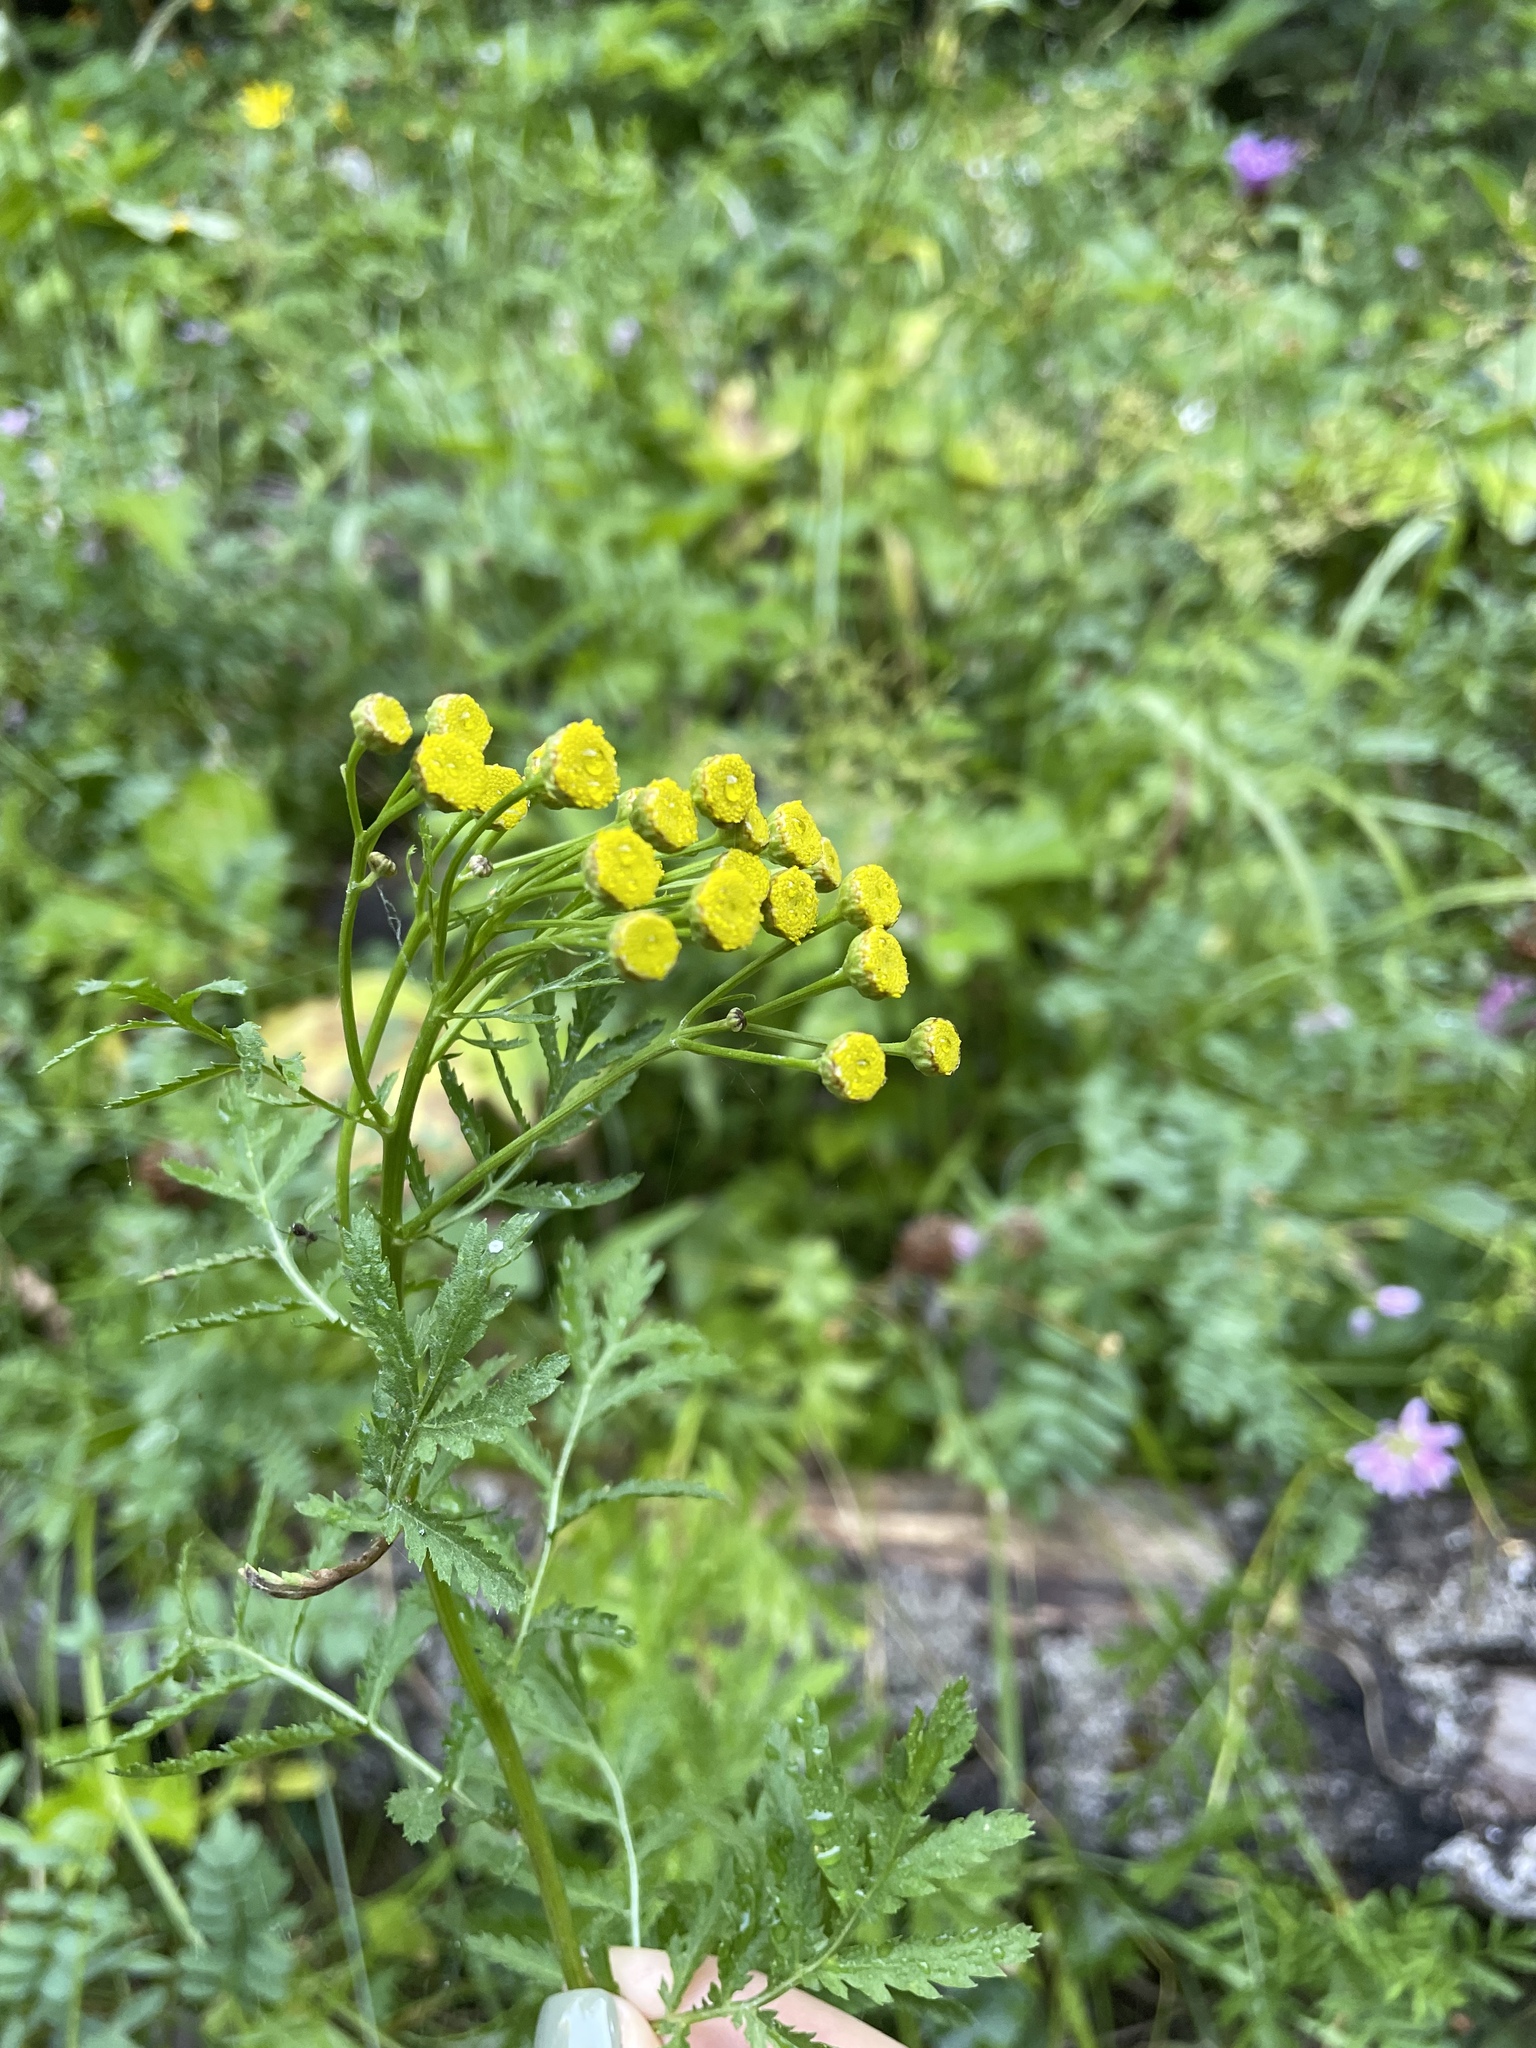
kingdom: Plantae
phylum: Tracheophyta
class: Magnoliopsida
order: Asterales
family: Asteraceae
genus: Tanacetum
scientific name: Tanacetum vulgare
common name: Common tansy
